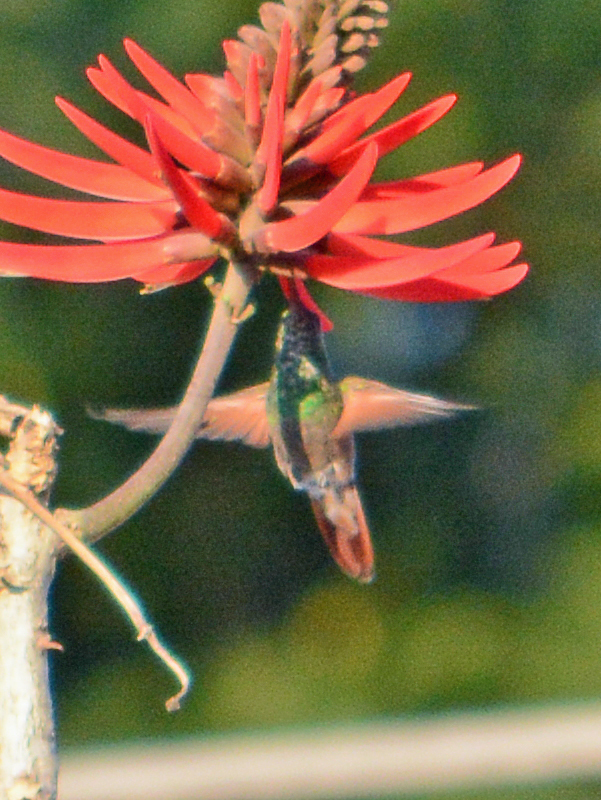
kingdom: Animalia
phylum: Chordata
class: Aves
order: Apodiformes
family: Trochilidae
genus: Saucerottia
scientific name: Saucerottia beryllina
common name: Berylline hummingbird
